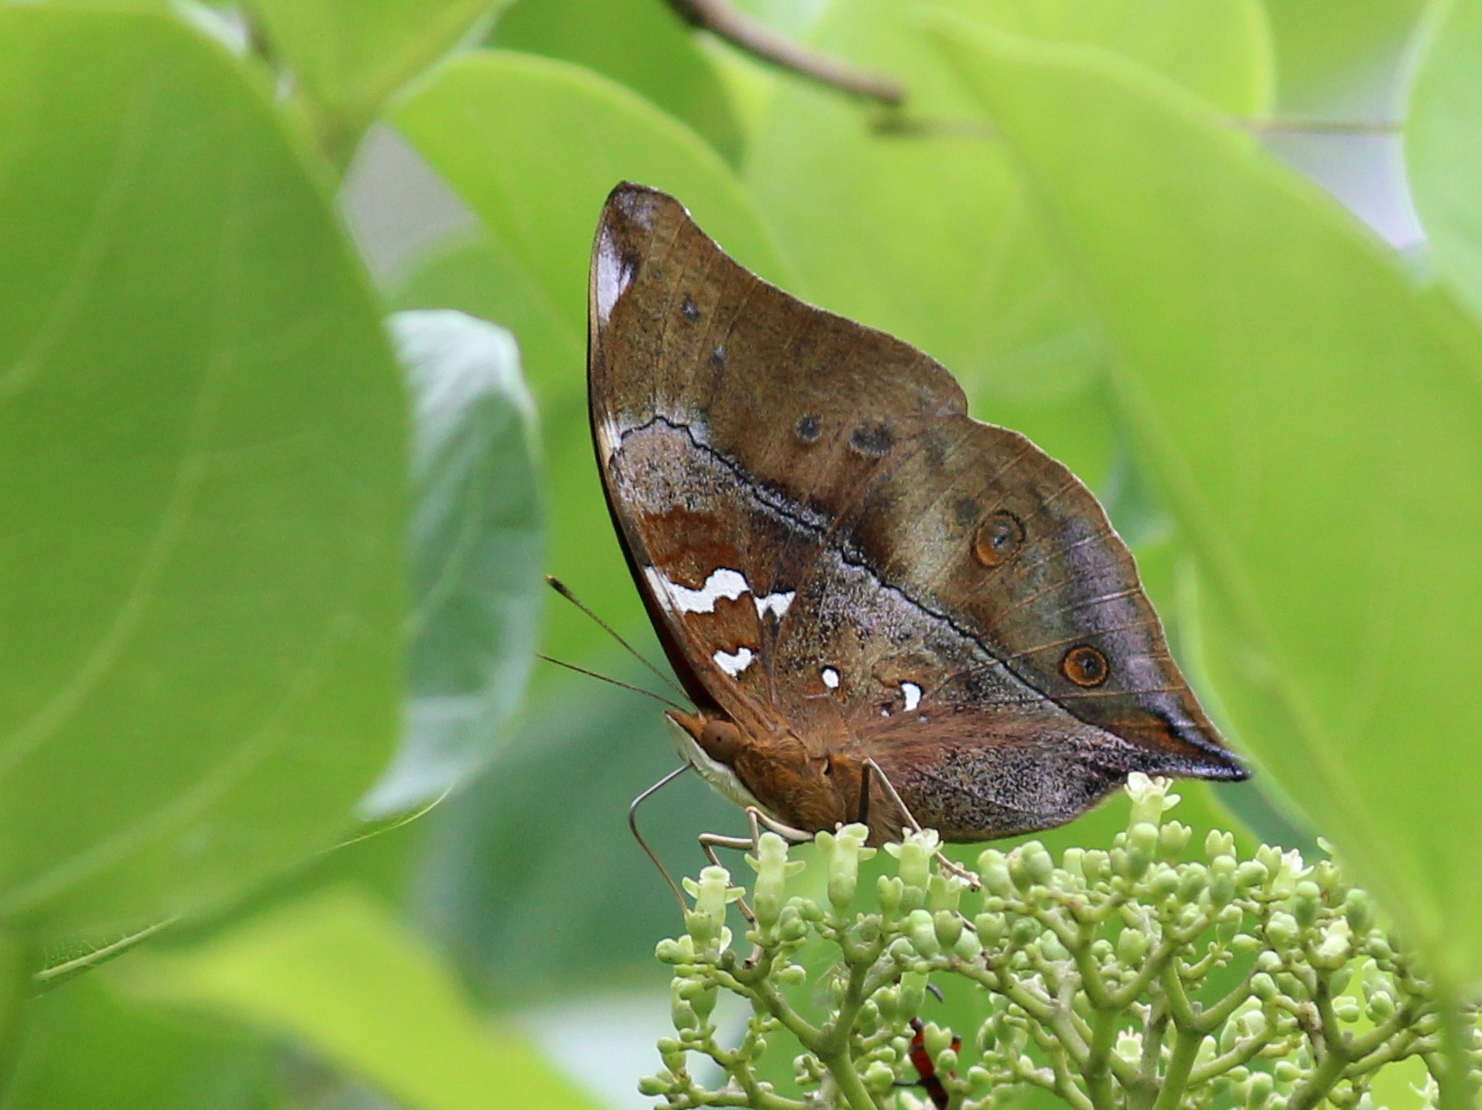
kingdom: Animalia
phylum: Arthropoda
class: Insecta
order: Lepidoptera
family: Nymphalidae
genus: Doleschallia
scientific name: Doleschallia bisaltide
